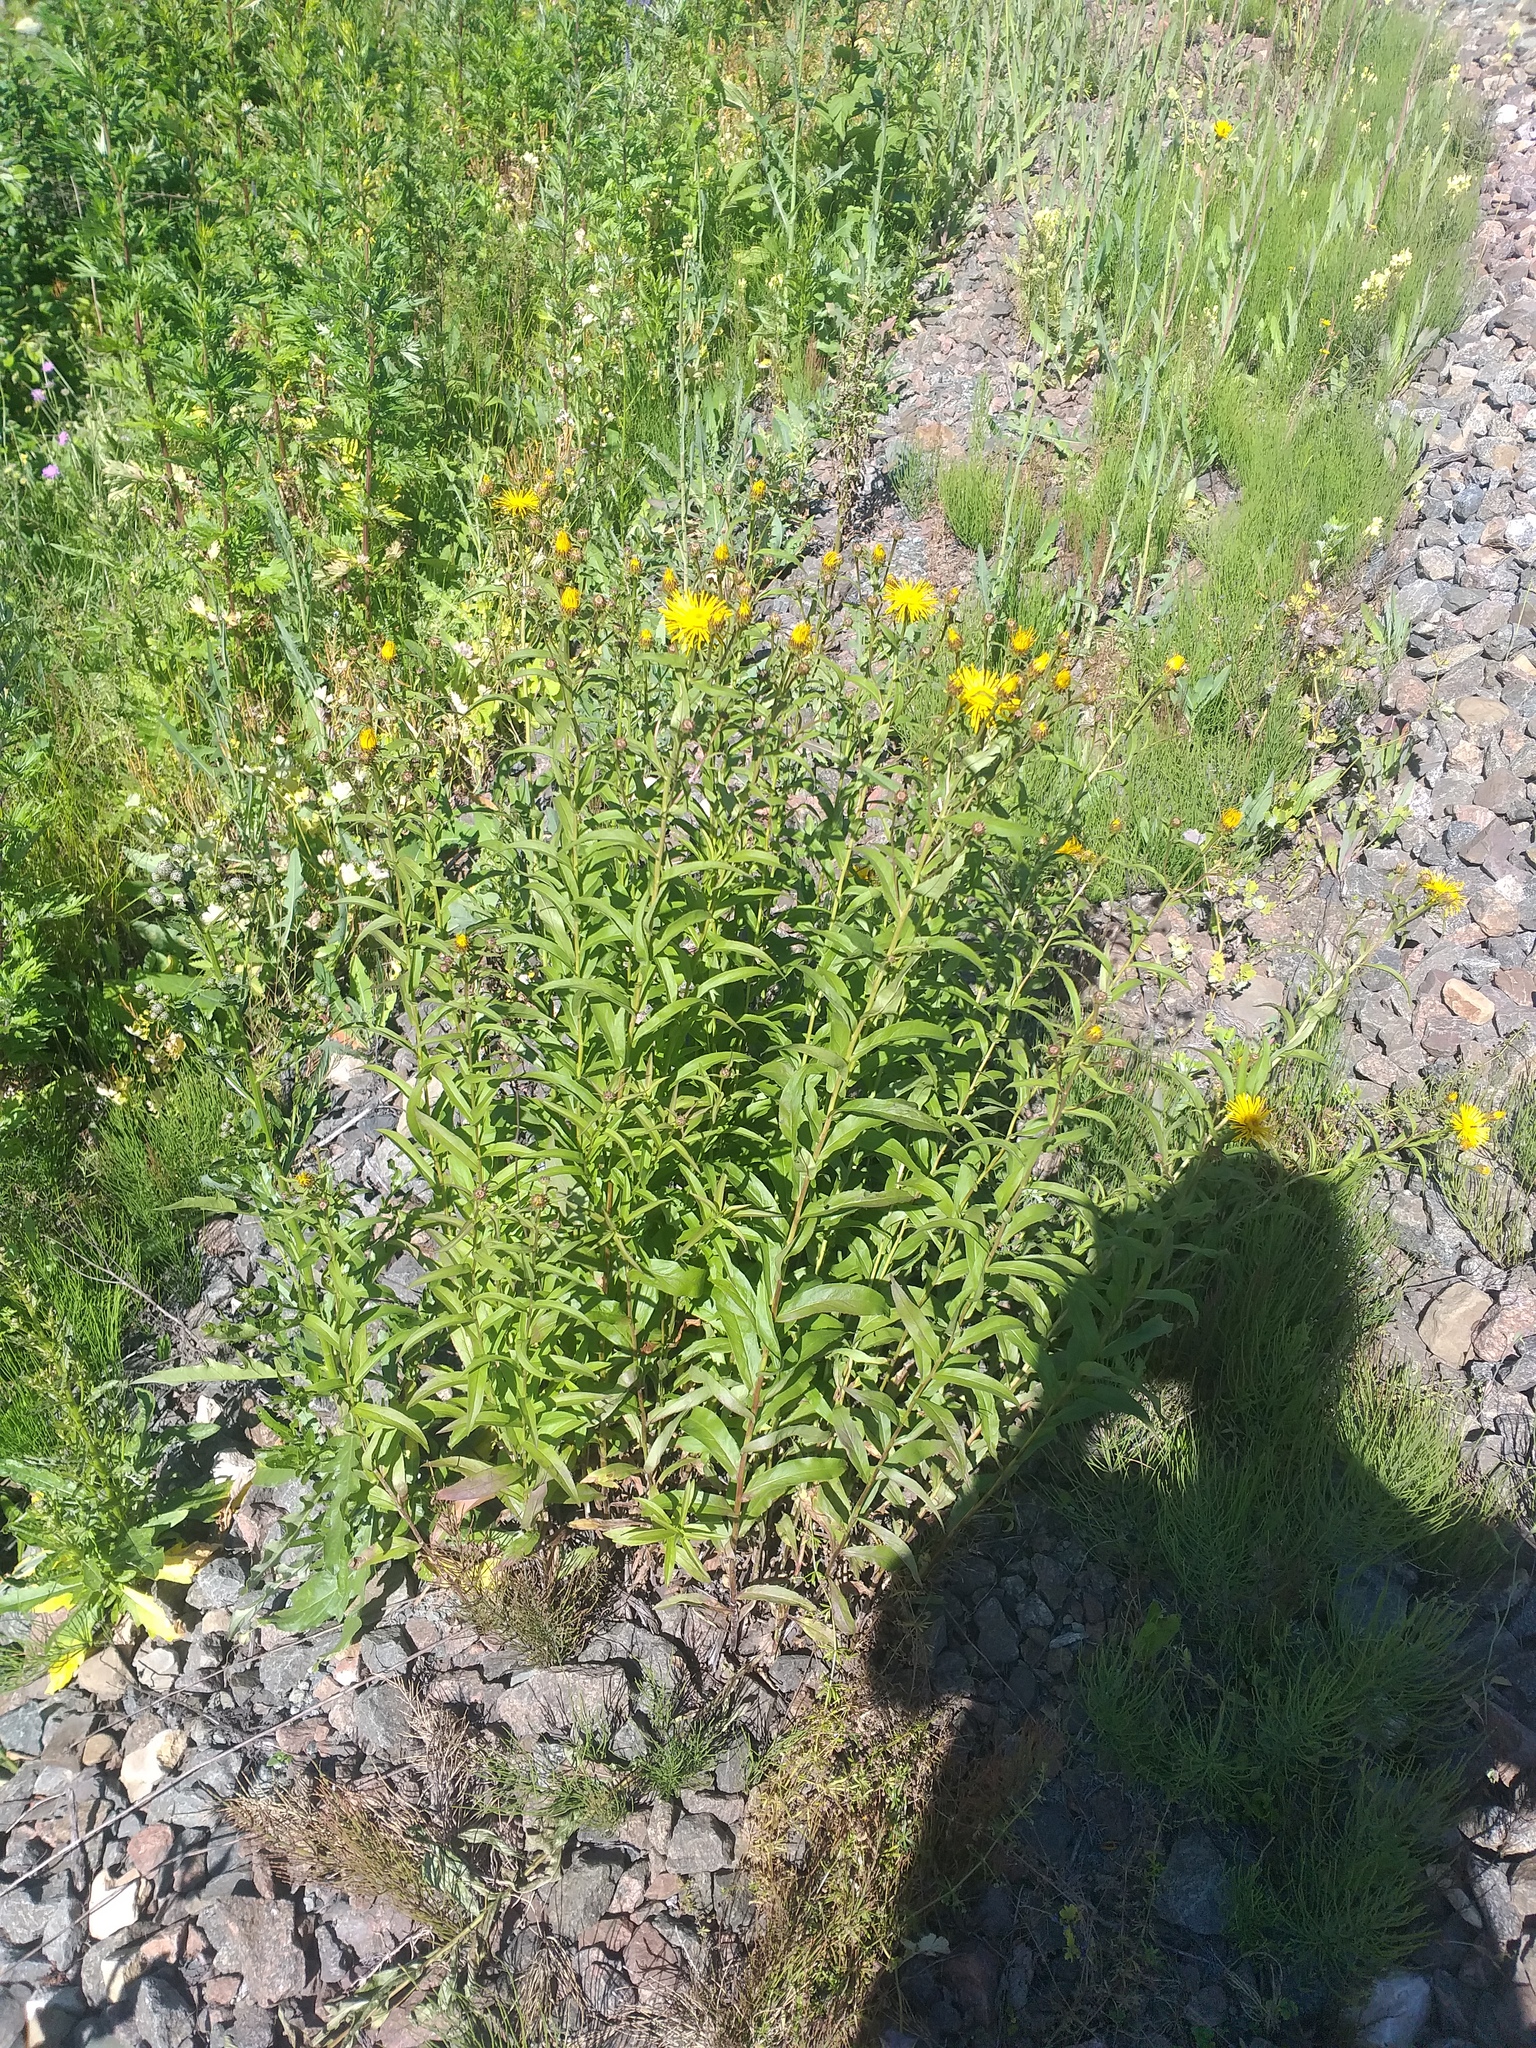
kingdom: Plantae
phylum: Tracheophyta
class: Magnoliopsida
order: Asterales
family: Asteraceae
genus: Pentanema
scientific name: Pentanema salicinum
